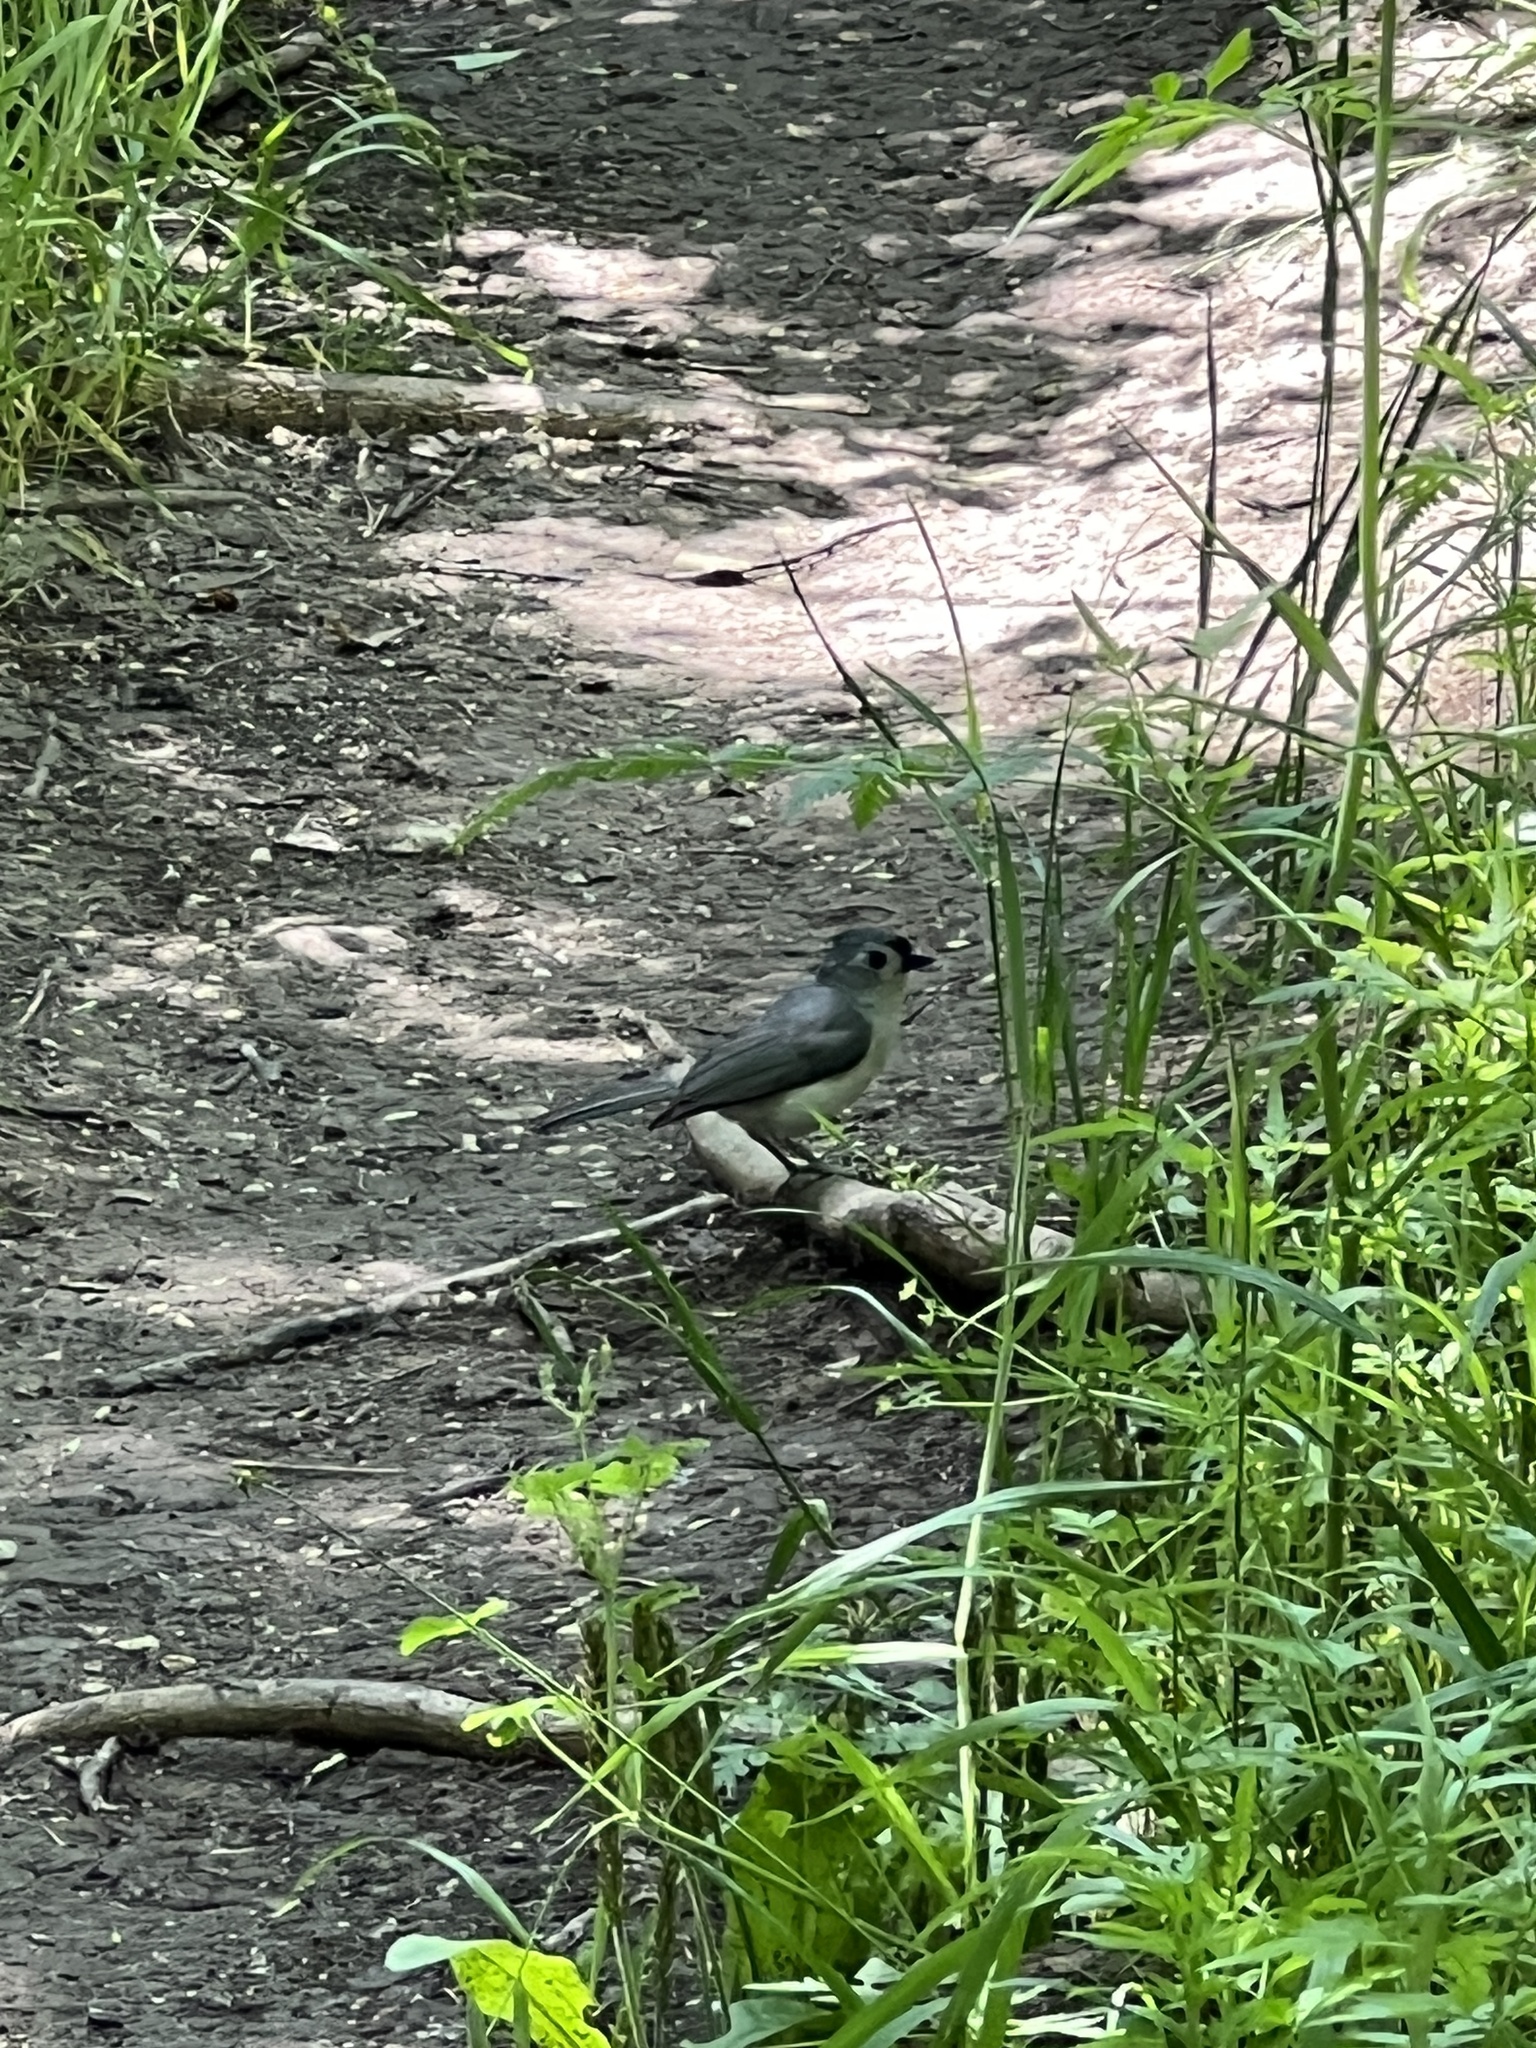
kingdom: Animalia
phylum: Chordata
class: Aves
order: Passeriformes
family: Paridae
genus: Baeolophus
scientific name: Baeolophus bicolor
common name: Tufted titmouse
